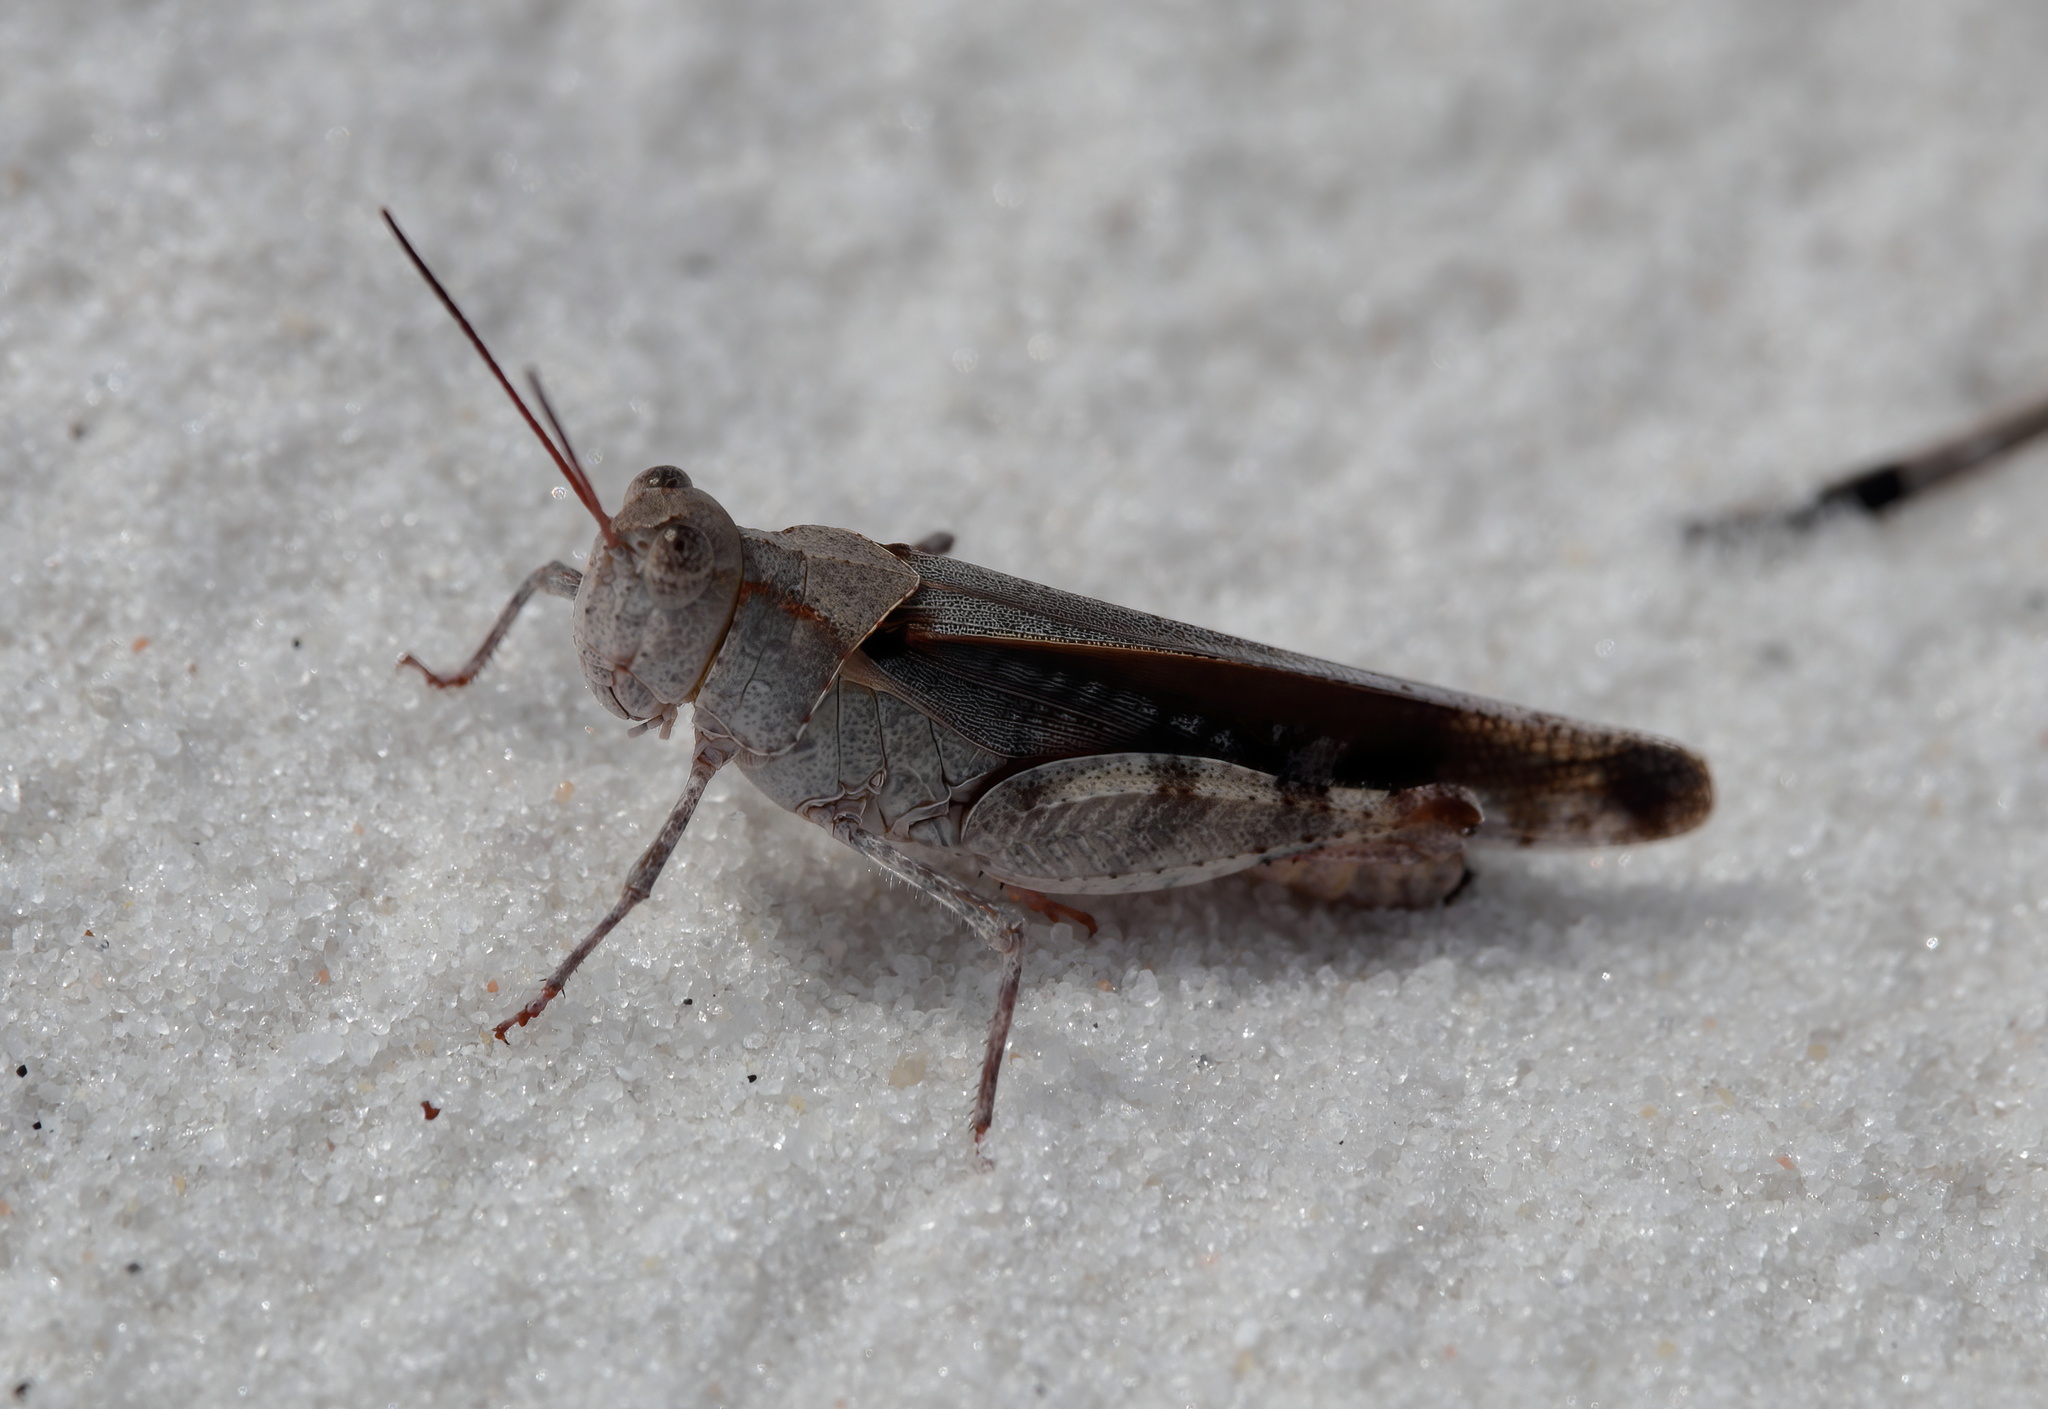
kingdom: Animalia
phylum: Arthropoda
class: Insecta
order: Orthoptera
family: Acrididae
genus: Spharagemon
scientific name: Spharagemon marmoratum
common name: Marbled grasshopper
